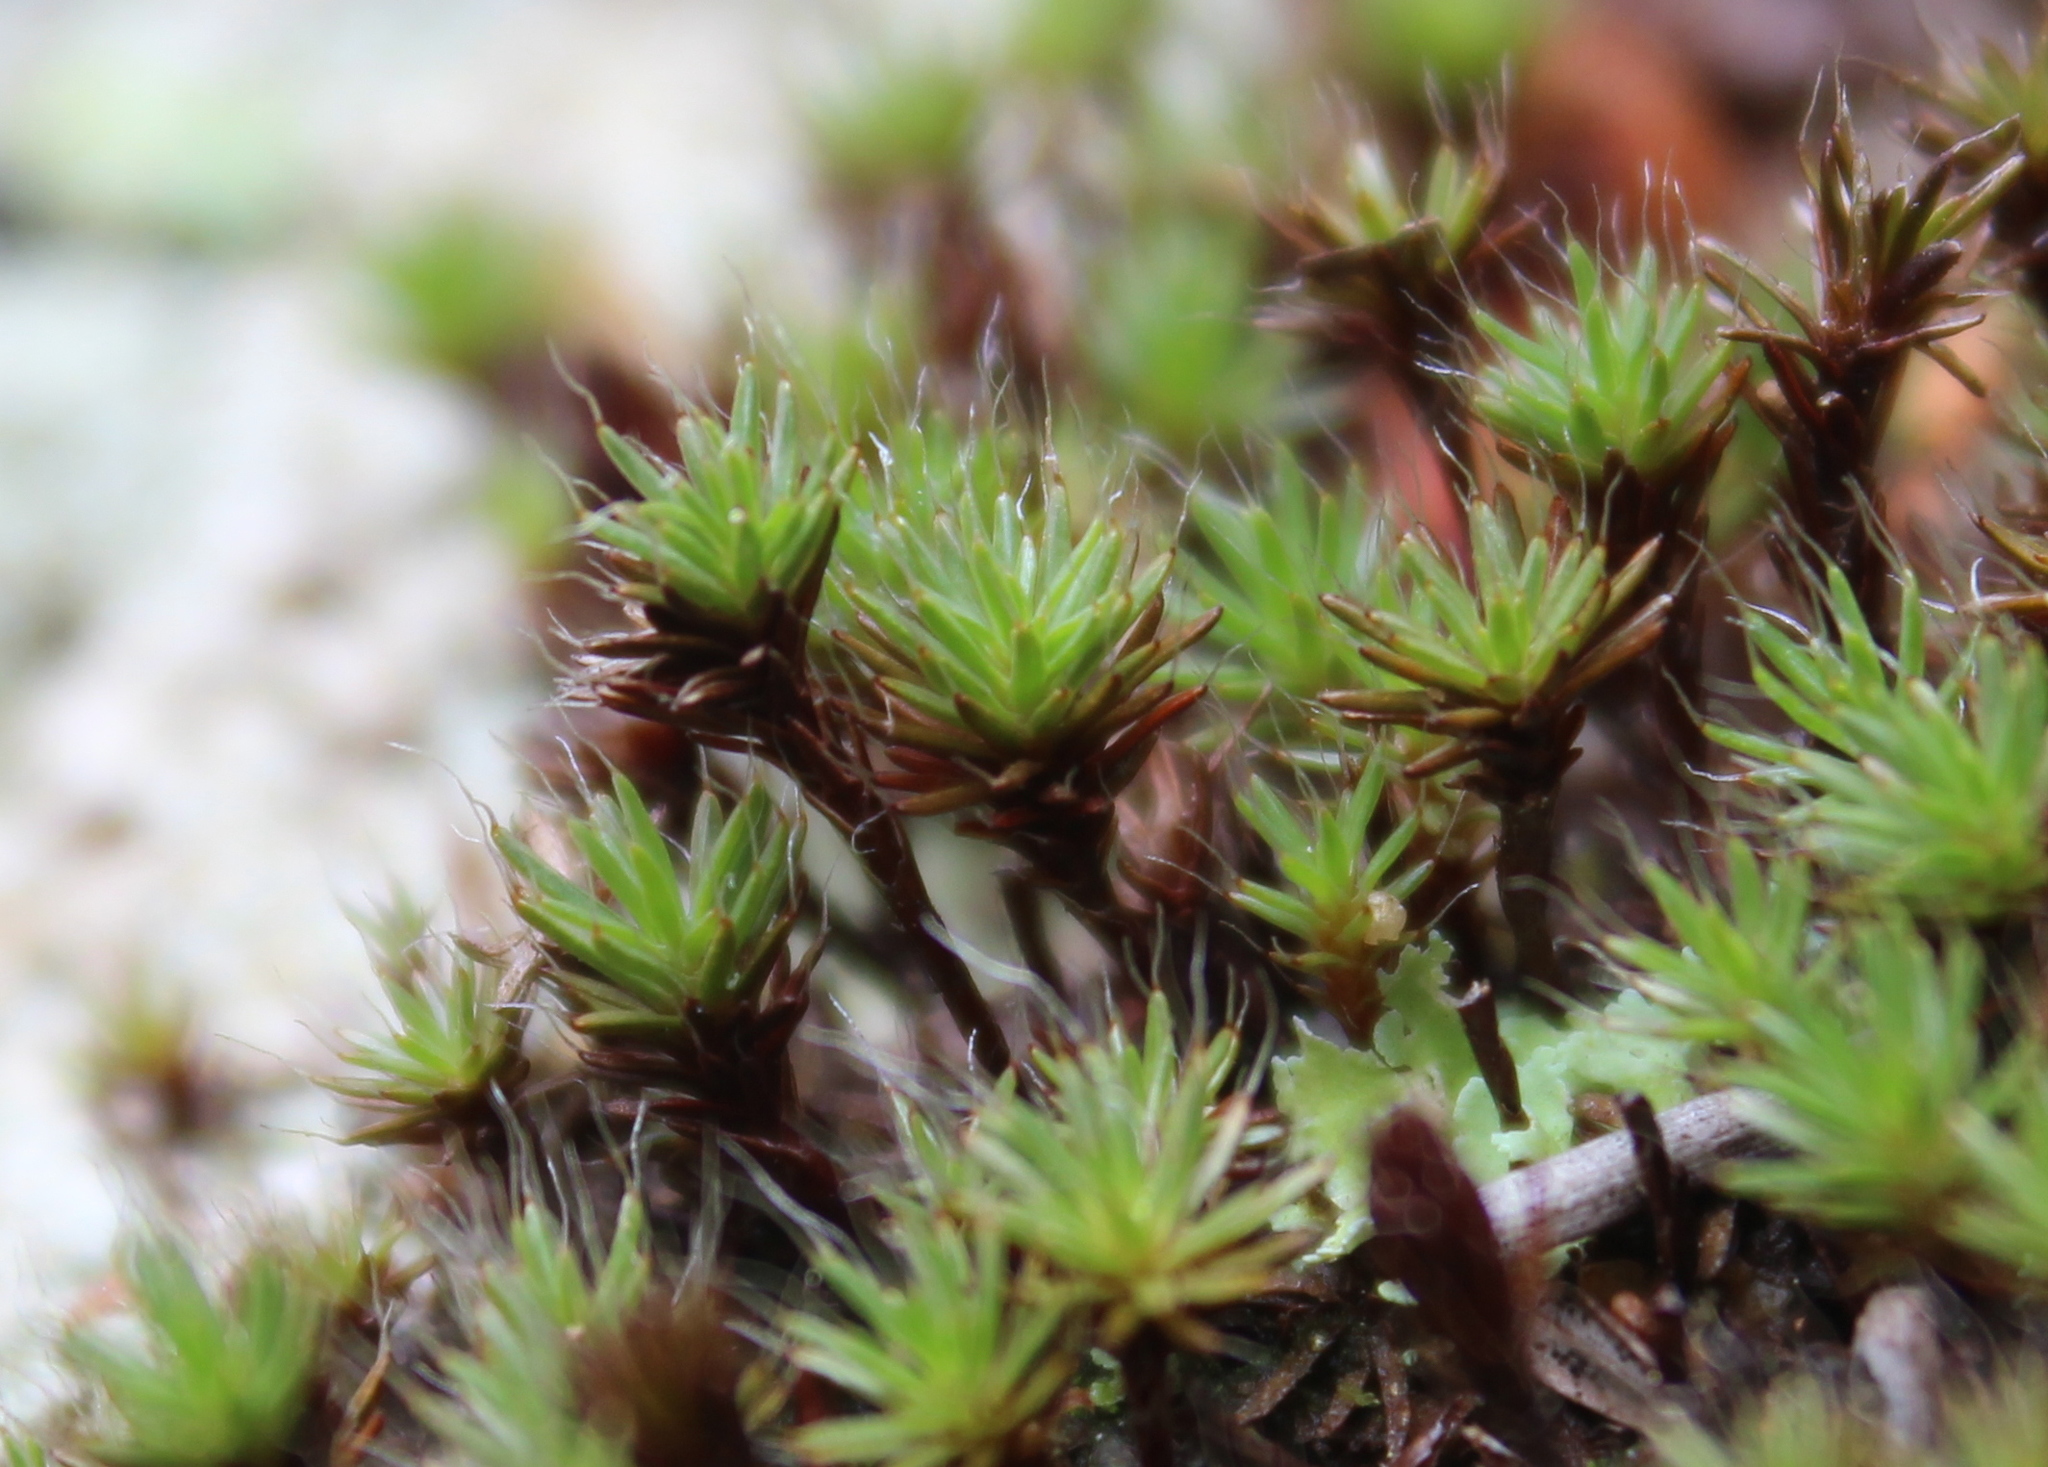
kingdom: Plantae
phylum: Bryophyta
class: Polytrichopsida
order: Polytrichales
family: Polytrichaceae
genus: Polytrichum
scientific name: Polytrichum piliferum
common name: Bristly haircap
